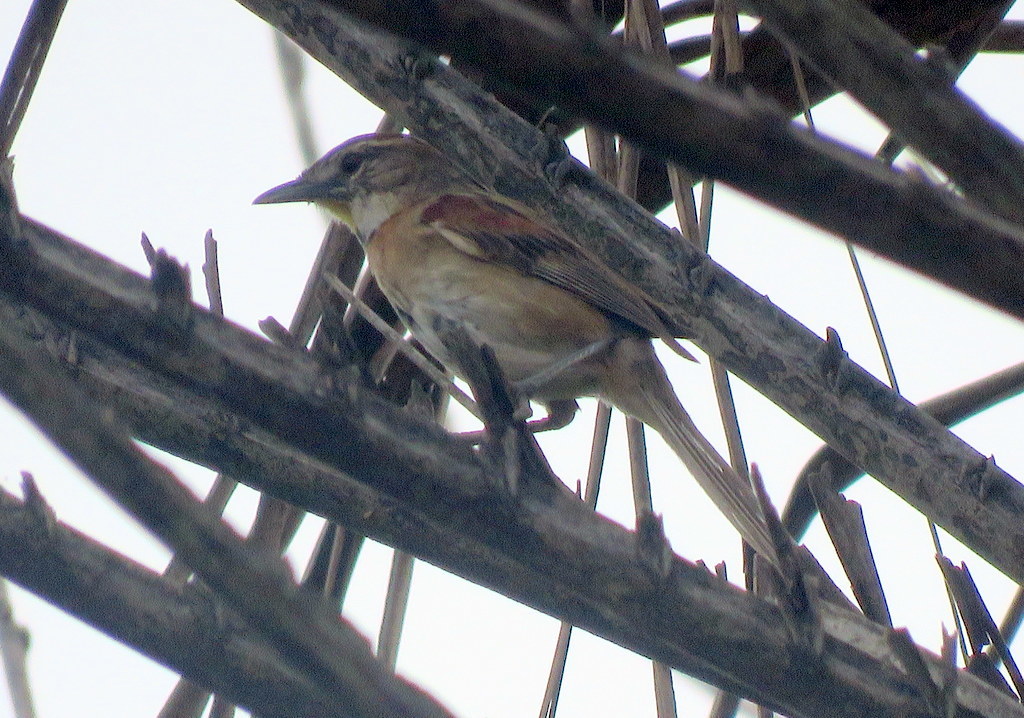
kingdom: Animalia
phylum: Chordata
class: Aves
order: Passeriformes
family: Furnariidae
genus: Schoeniophylax
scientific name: Schoeniophylax phryganophilus
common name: Chotoy spinetail
